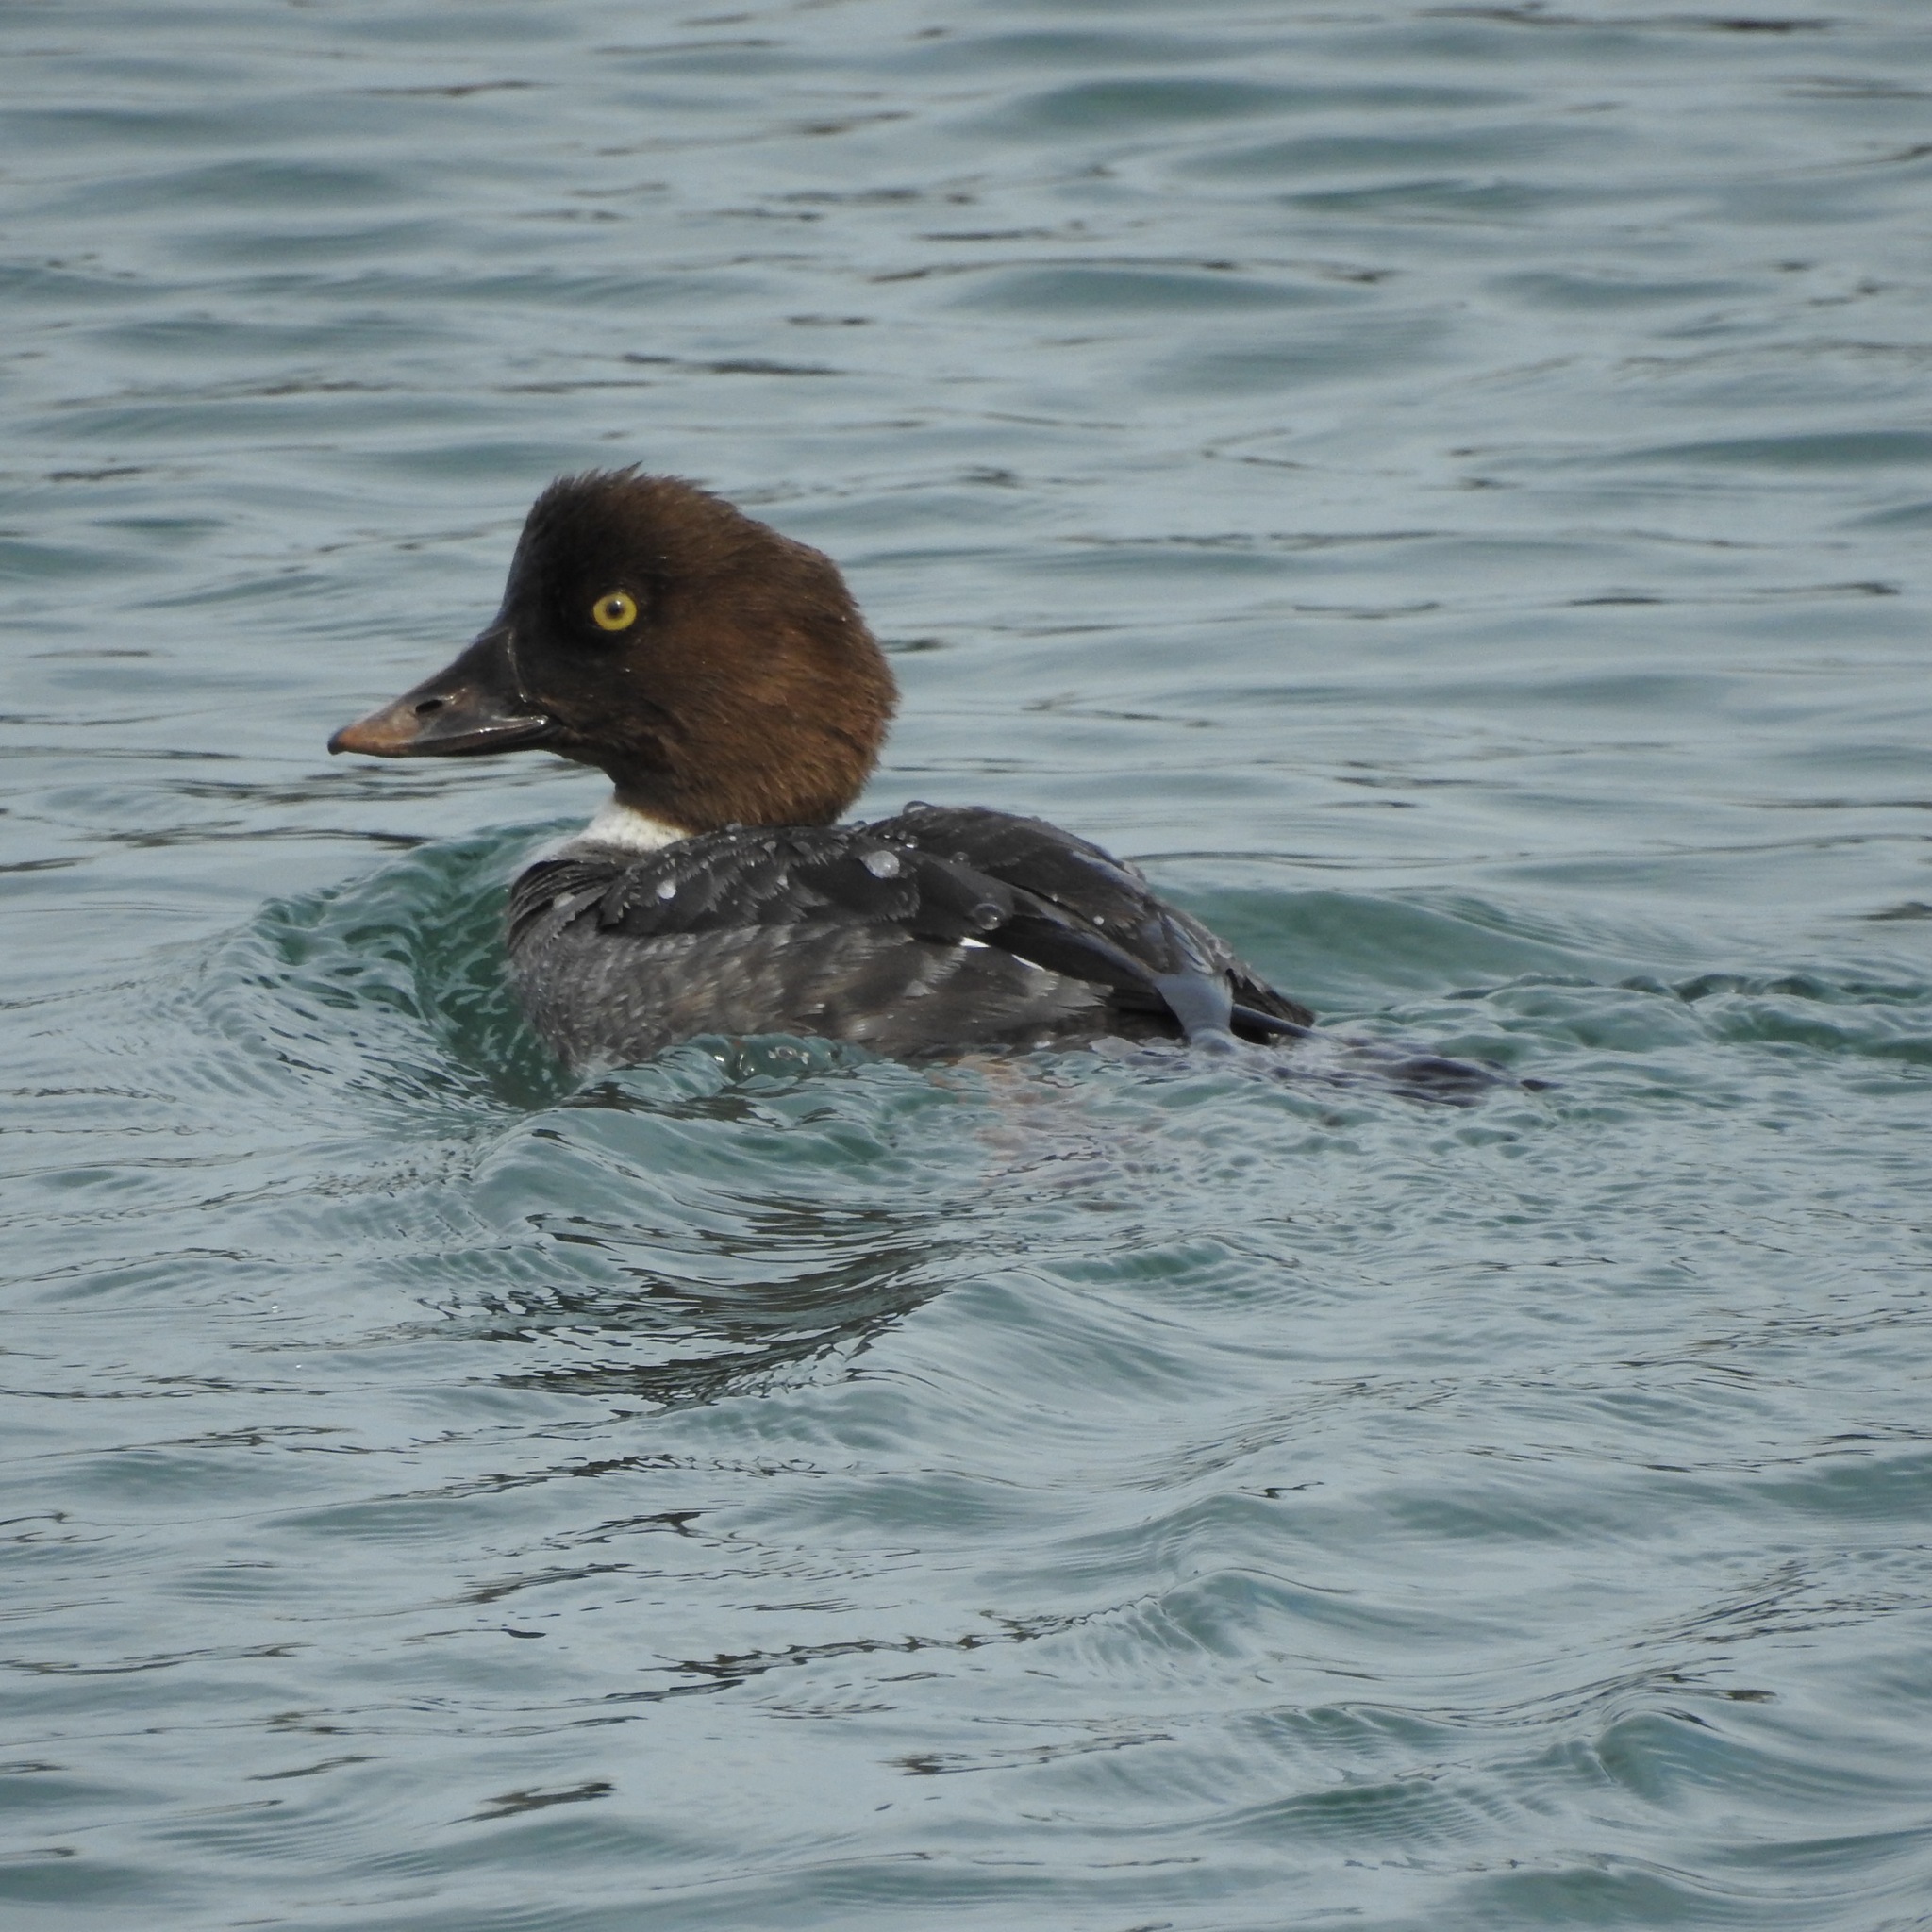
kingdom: Animalia
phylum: Chordata
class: Aves
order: Anseriformes
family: Anatidae
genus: Bucephala
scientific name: Bucephala clangula
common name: Common goldeneye
